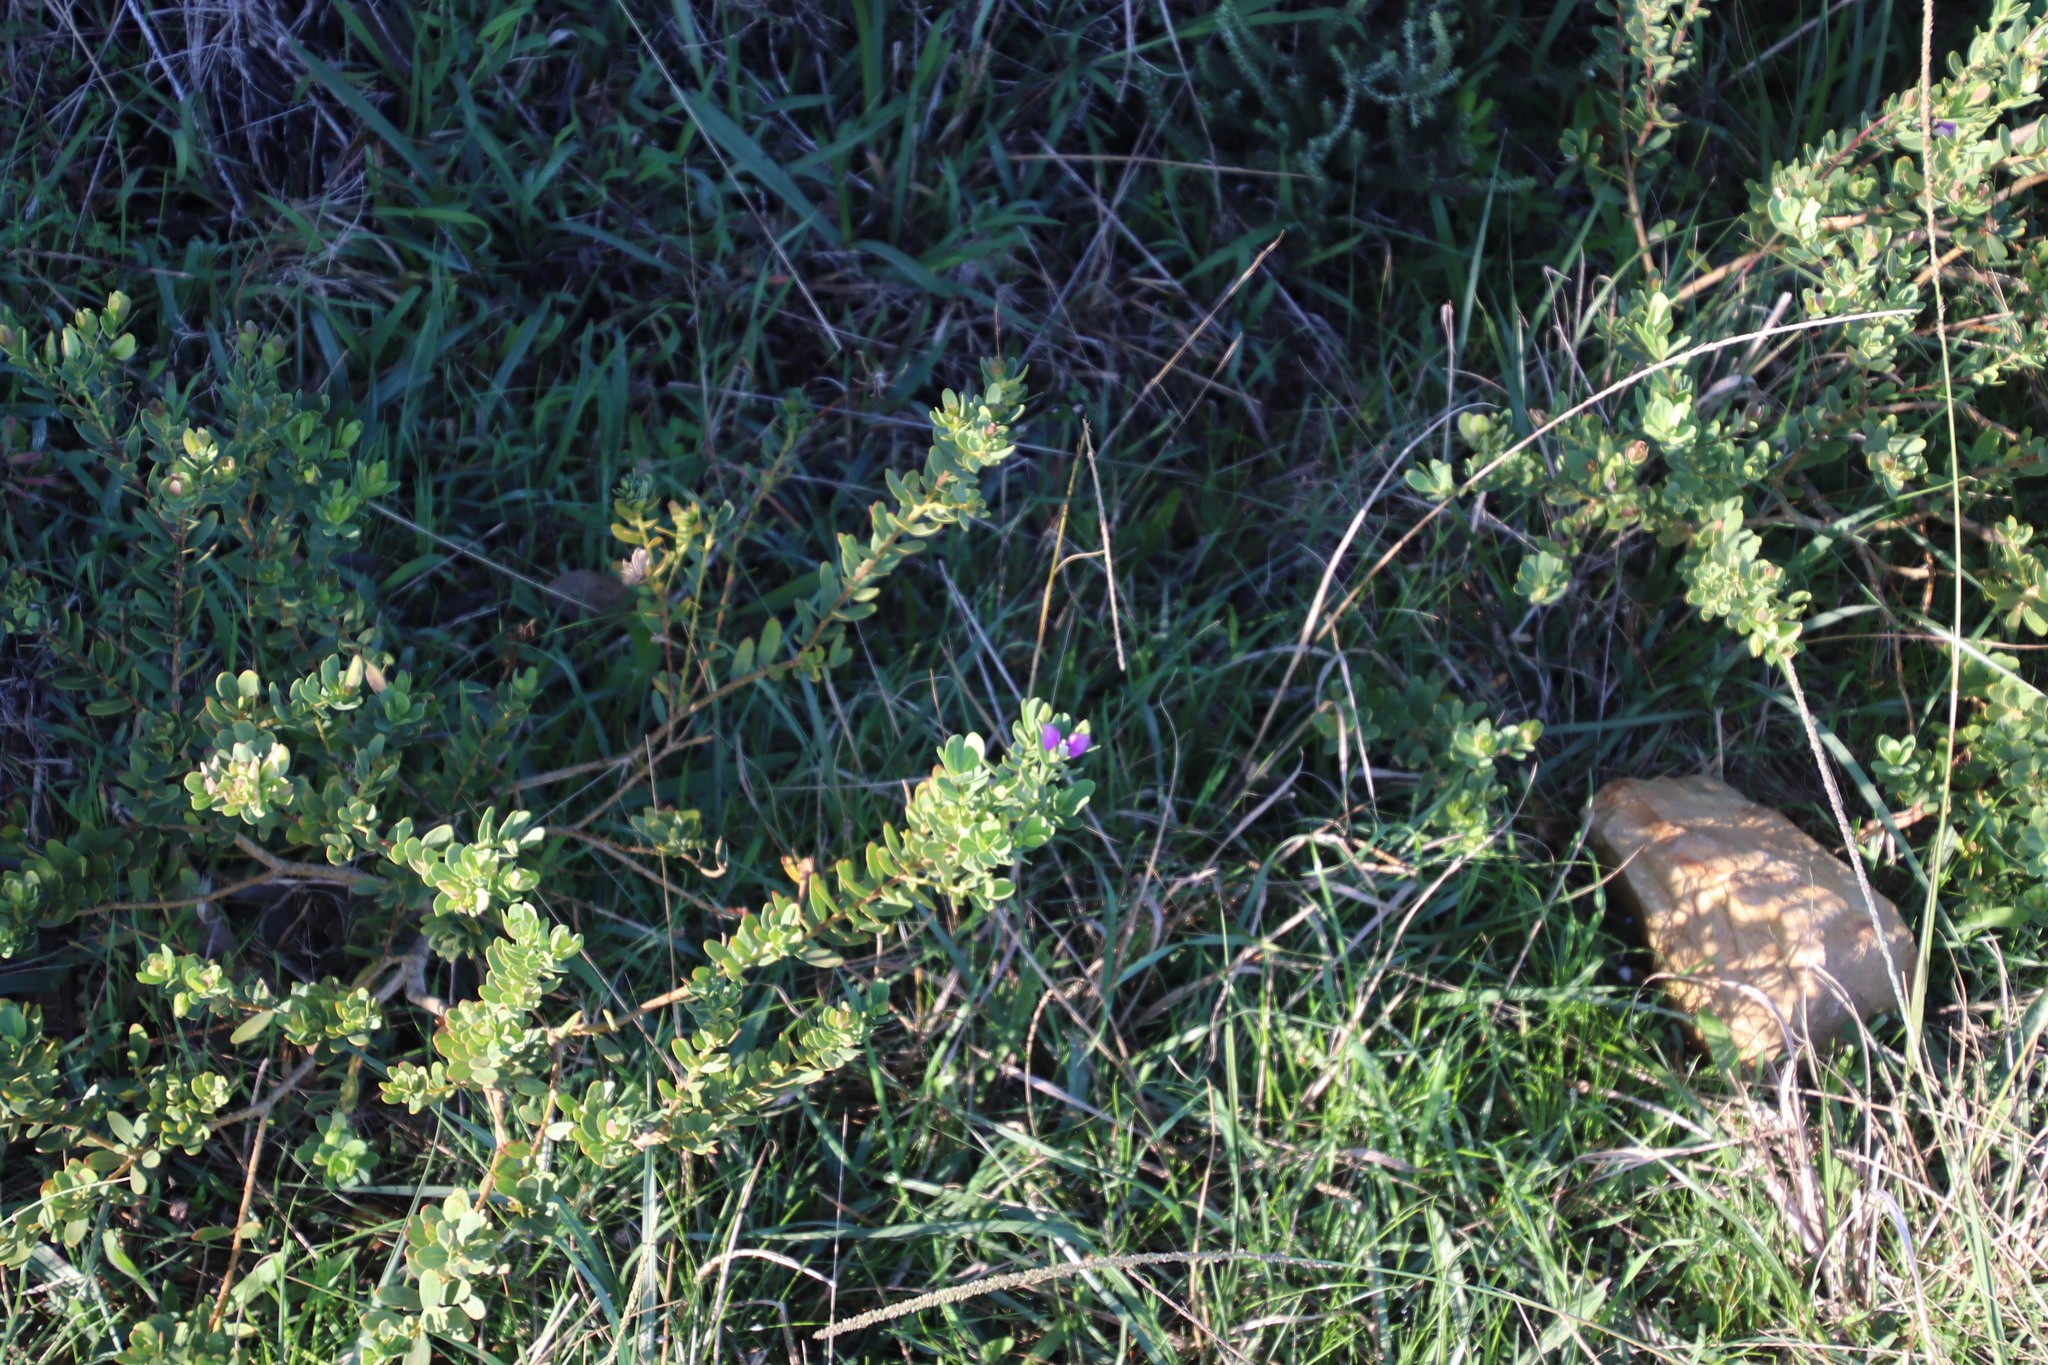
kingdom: Plantae
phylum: Tracheophyta
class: Magnoliopsida
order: Fabales
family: Polygalaceae
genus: Polygala
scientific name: Polygala myrtifolia
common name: Myrtle-leaf milkwort
